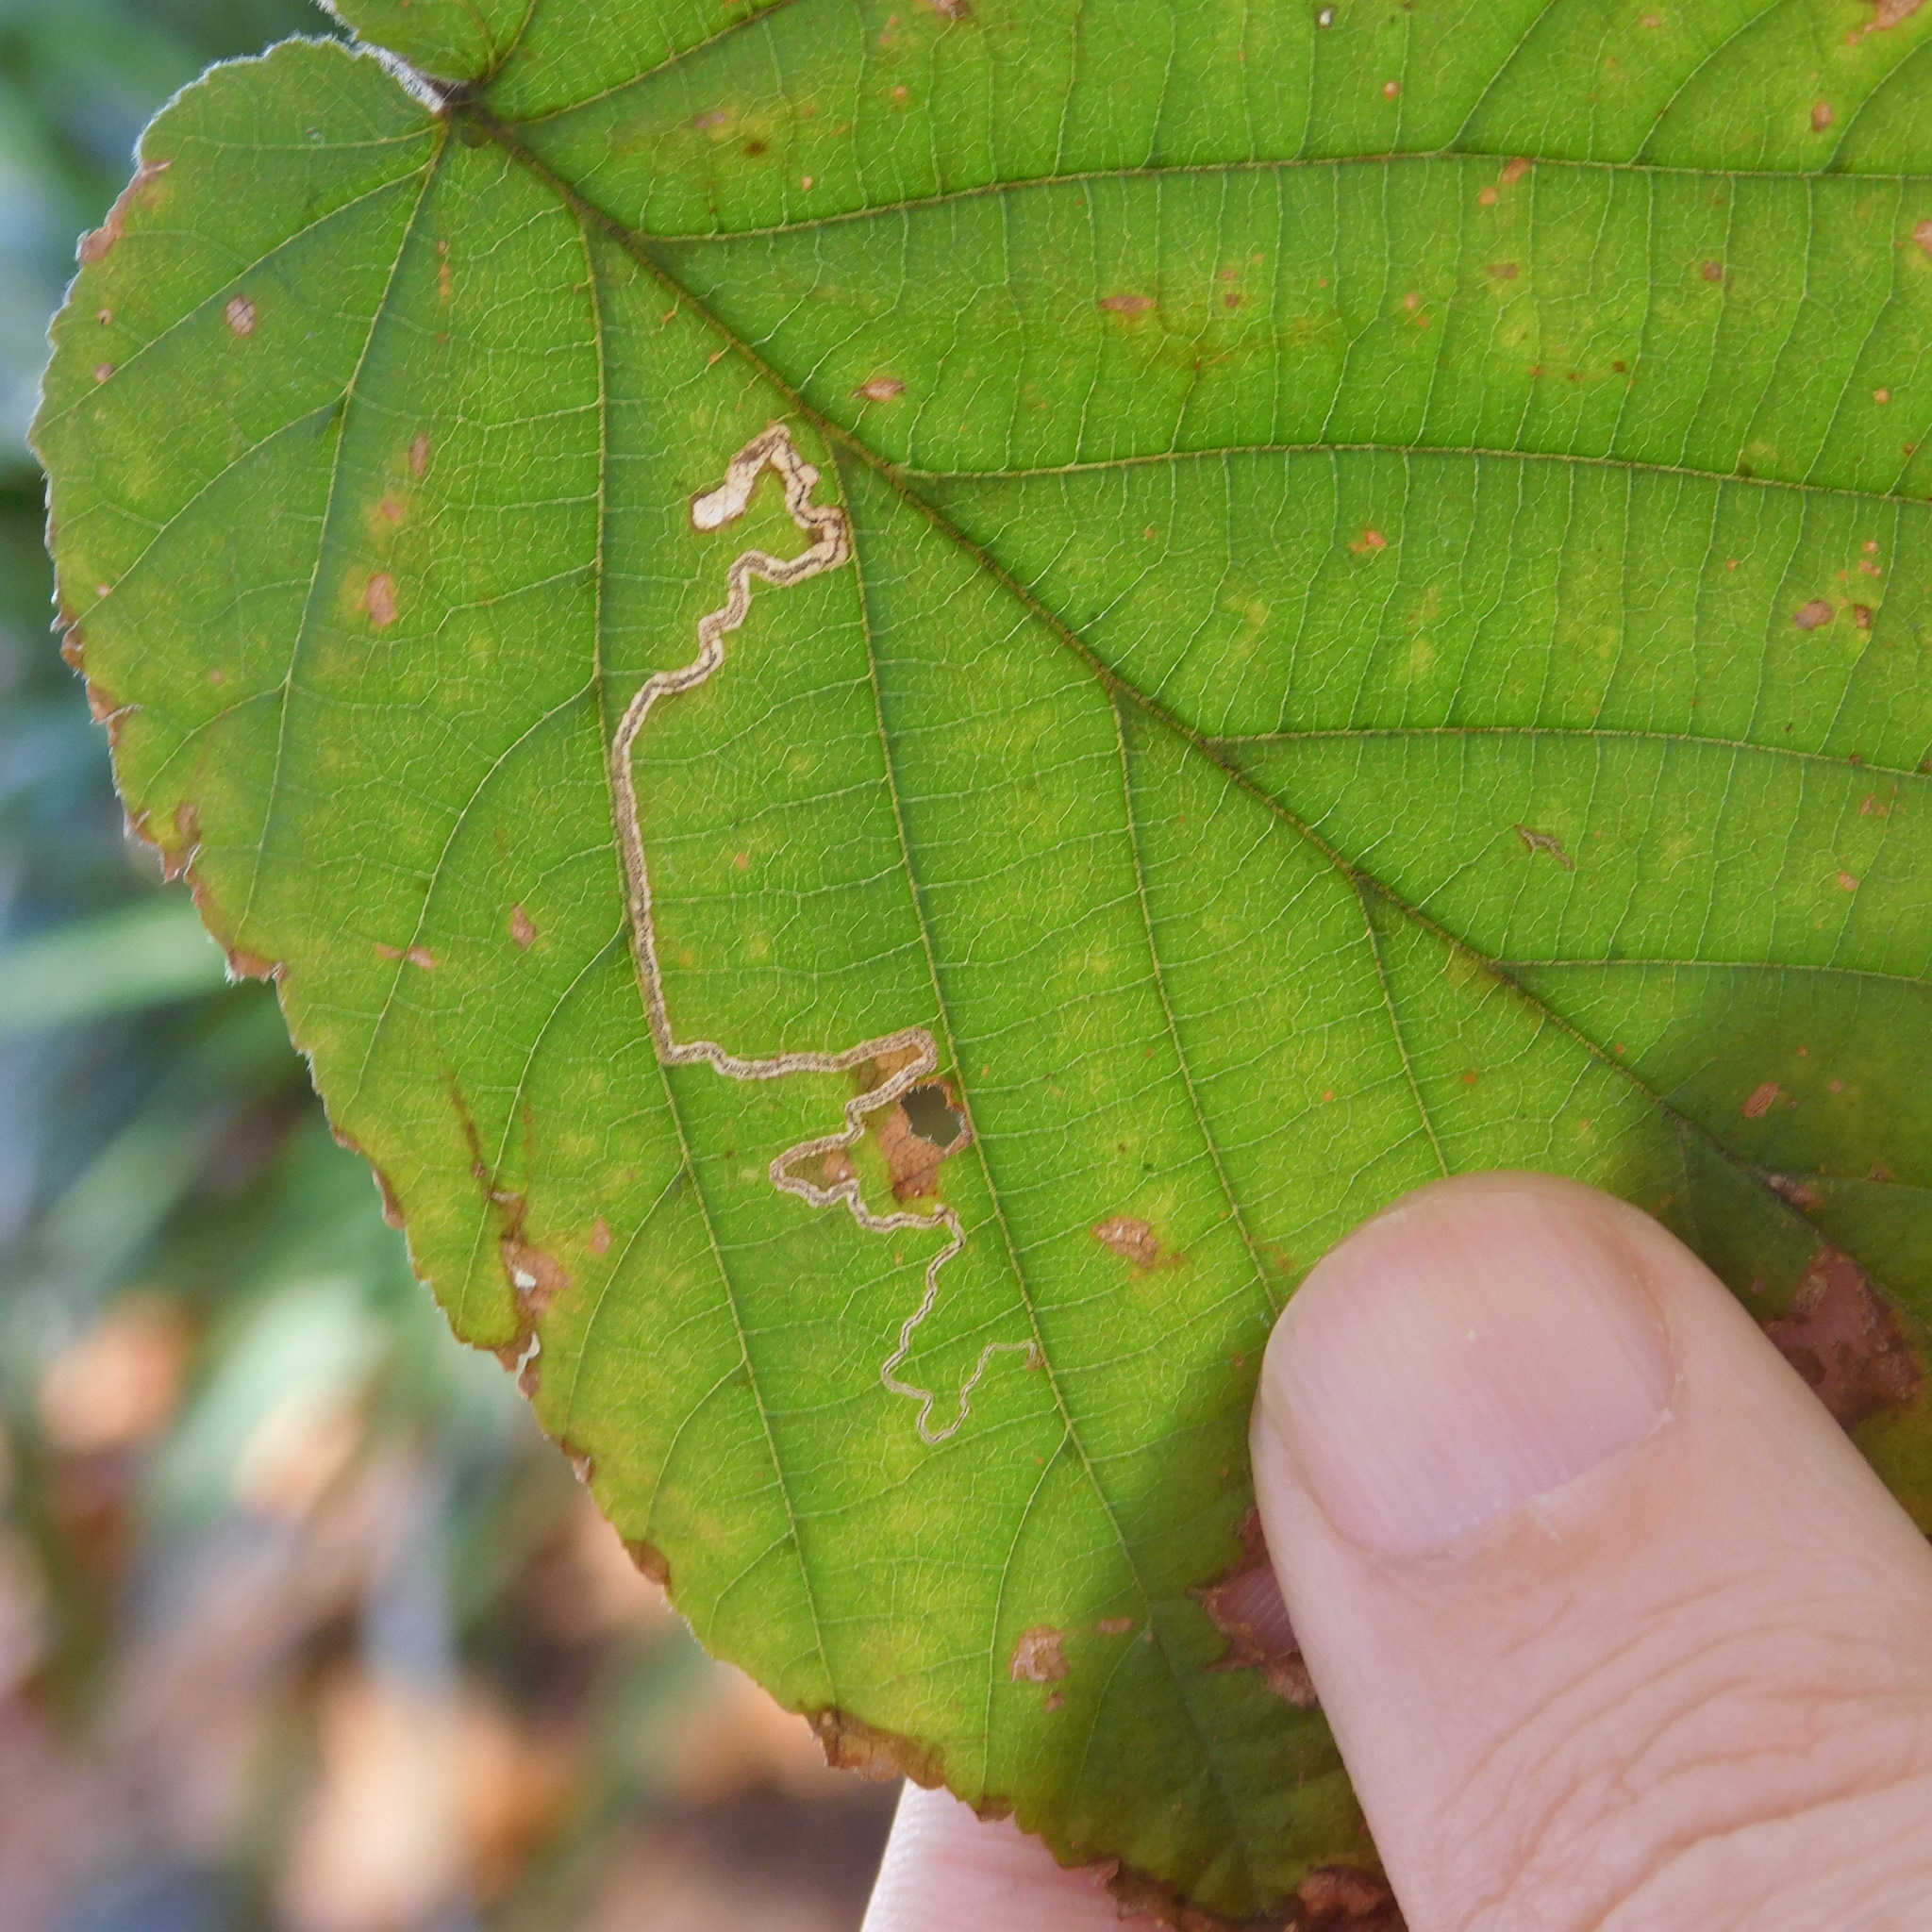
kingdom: Animalia
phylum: Arthropoda
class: Insecta
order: Lepidoptera
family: Nepticulidae
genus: Stigmella
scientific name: Stigmella microtheriella
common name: Nut-tree pigmy
